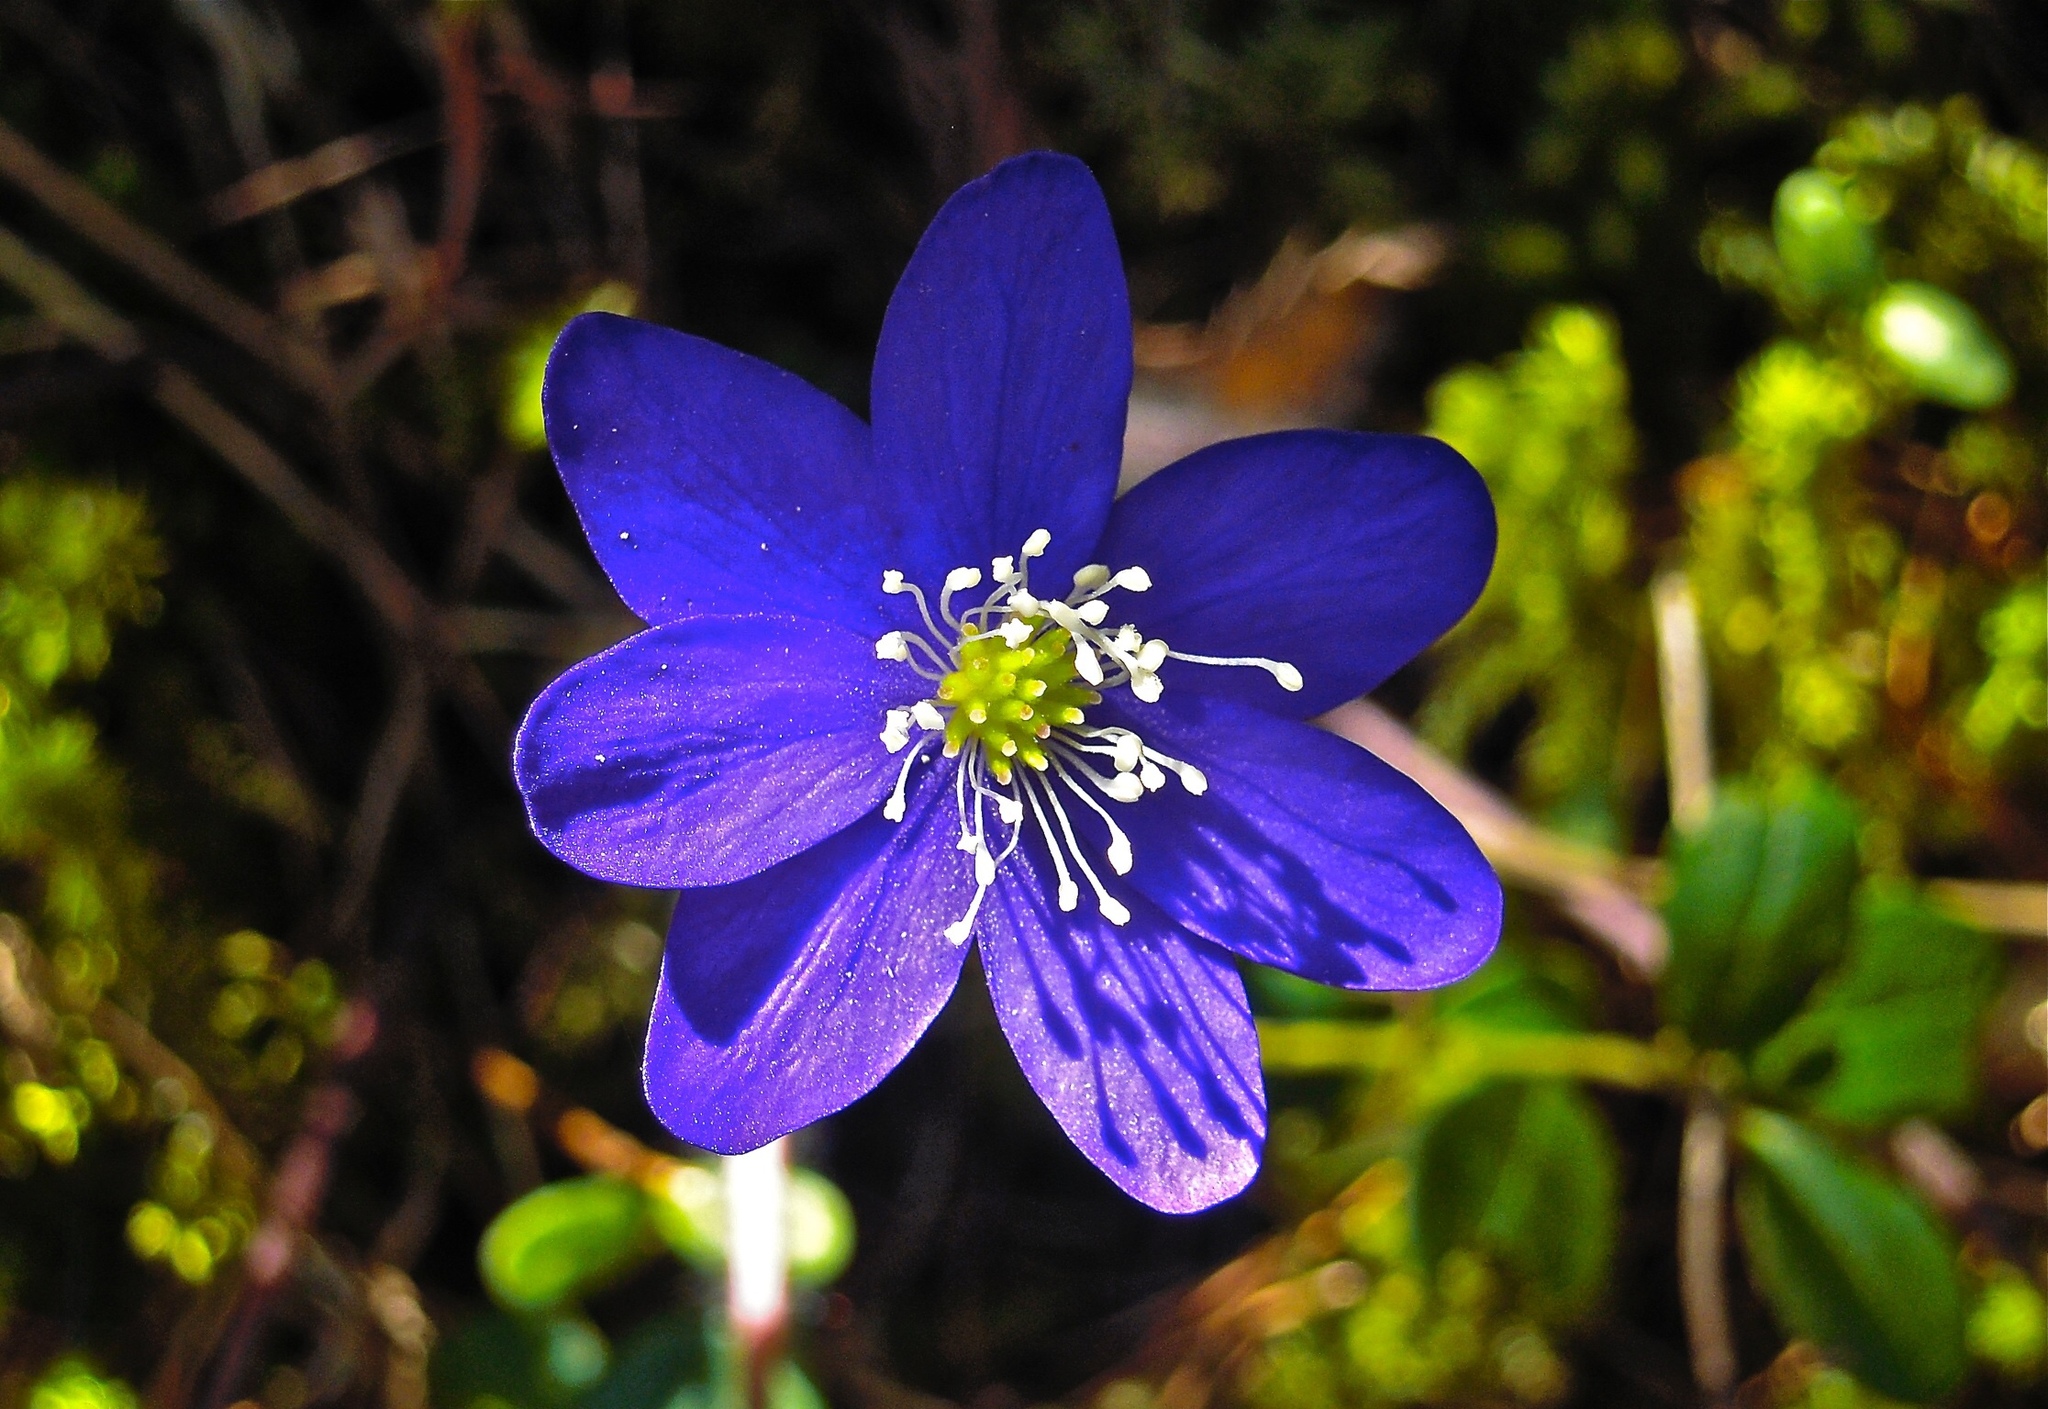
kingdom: Plantae
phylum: Tracheophyta
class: Magnoliopsida
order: Ranunculales
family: Ranunculaceae
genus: Hepatica
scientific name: Hepatica nobilis
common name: Liverleaf
